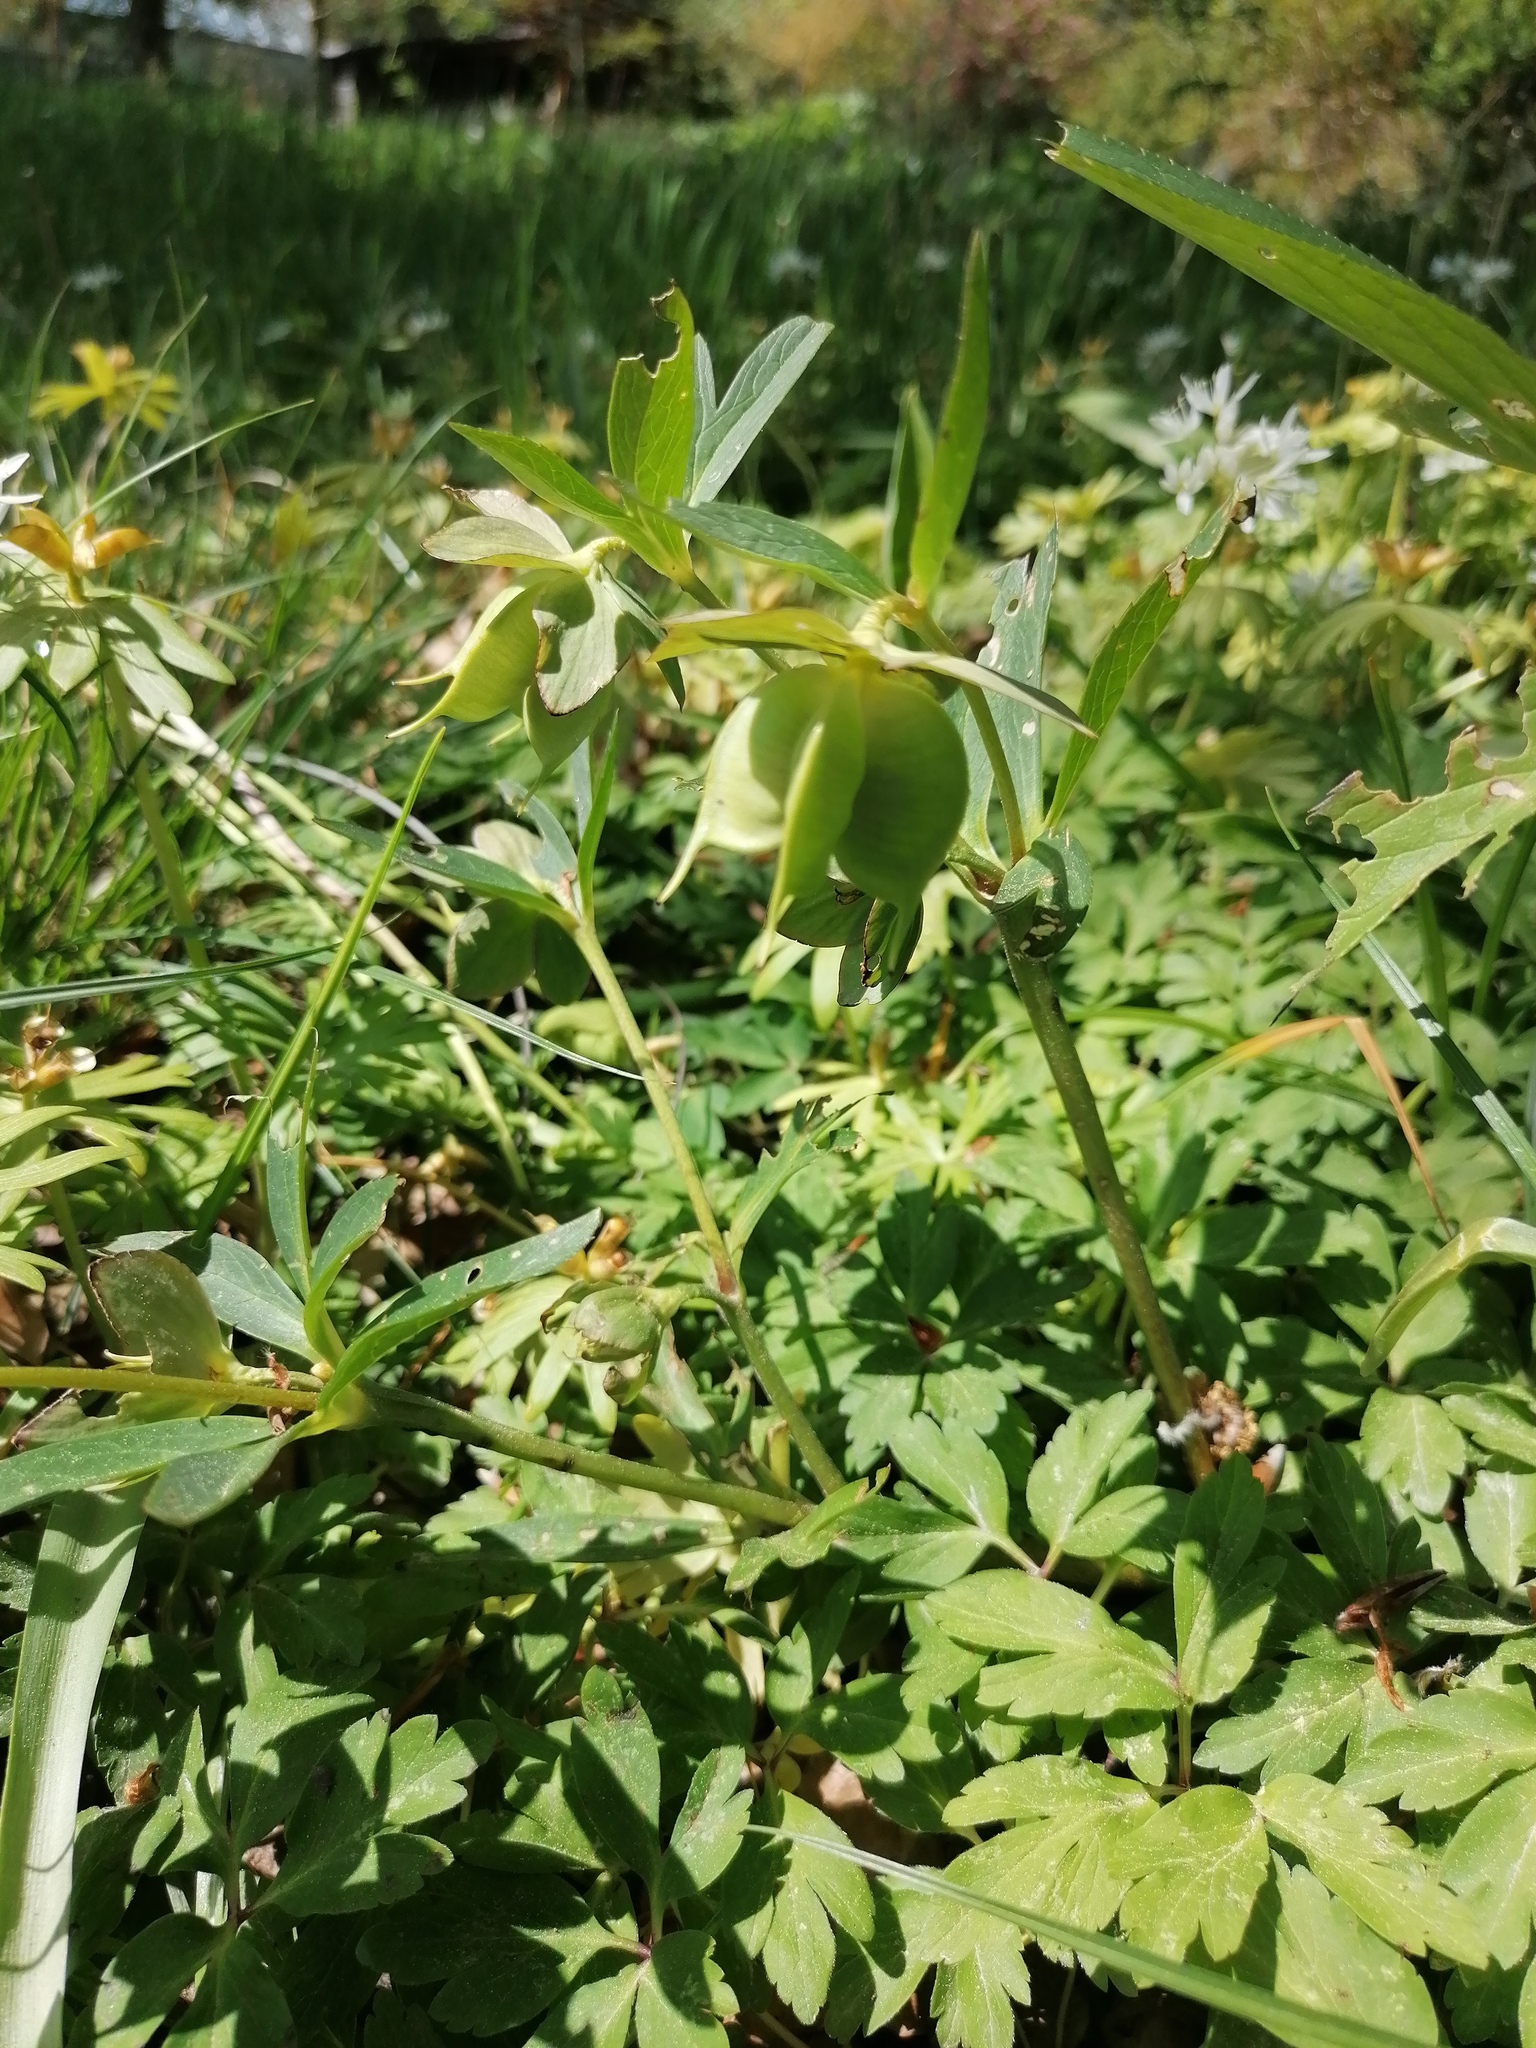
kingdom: Plantae
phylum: Tracheophyta
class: Magnoliopsida
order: Ranunculales
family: Ranunculaceae
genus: Helleborus
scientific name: Helleborus dumetorum
